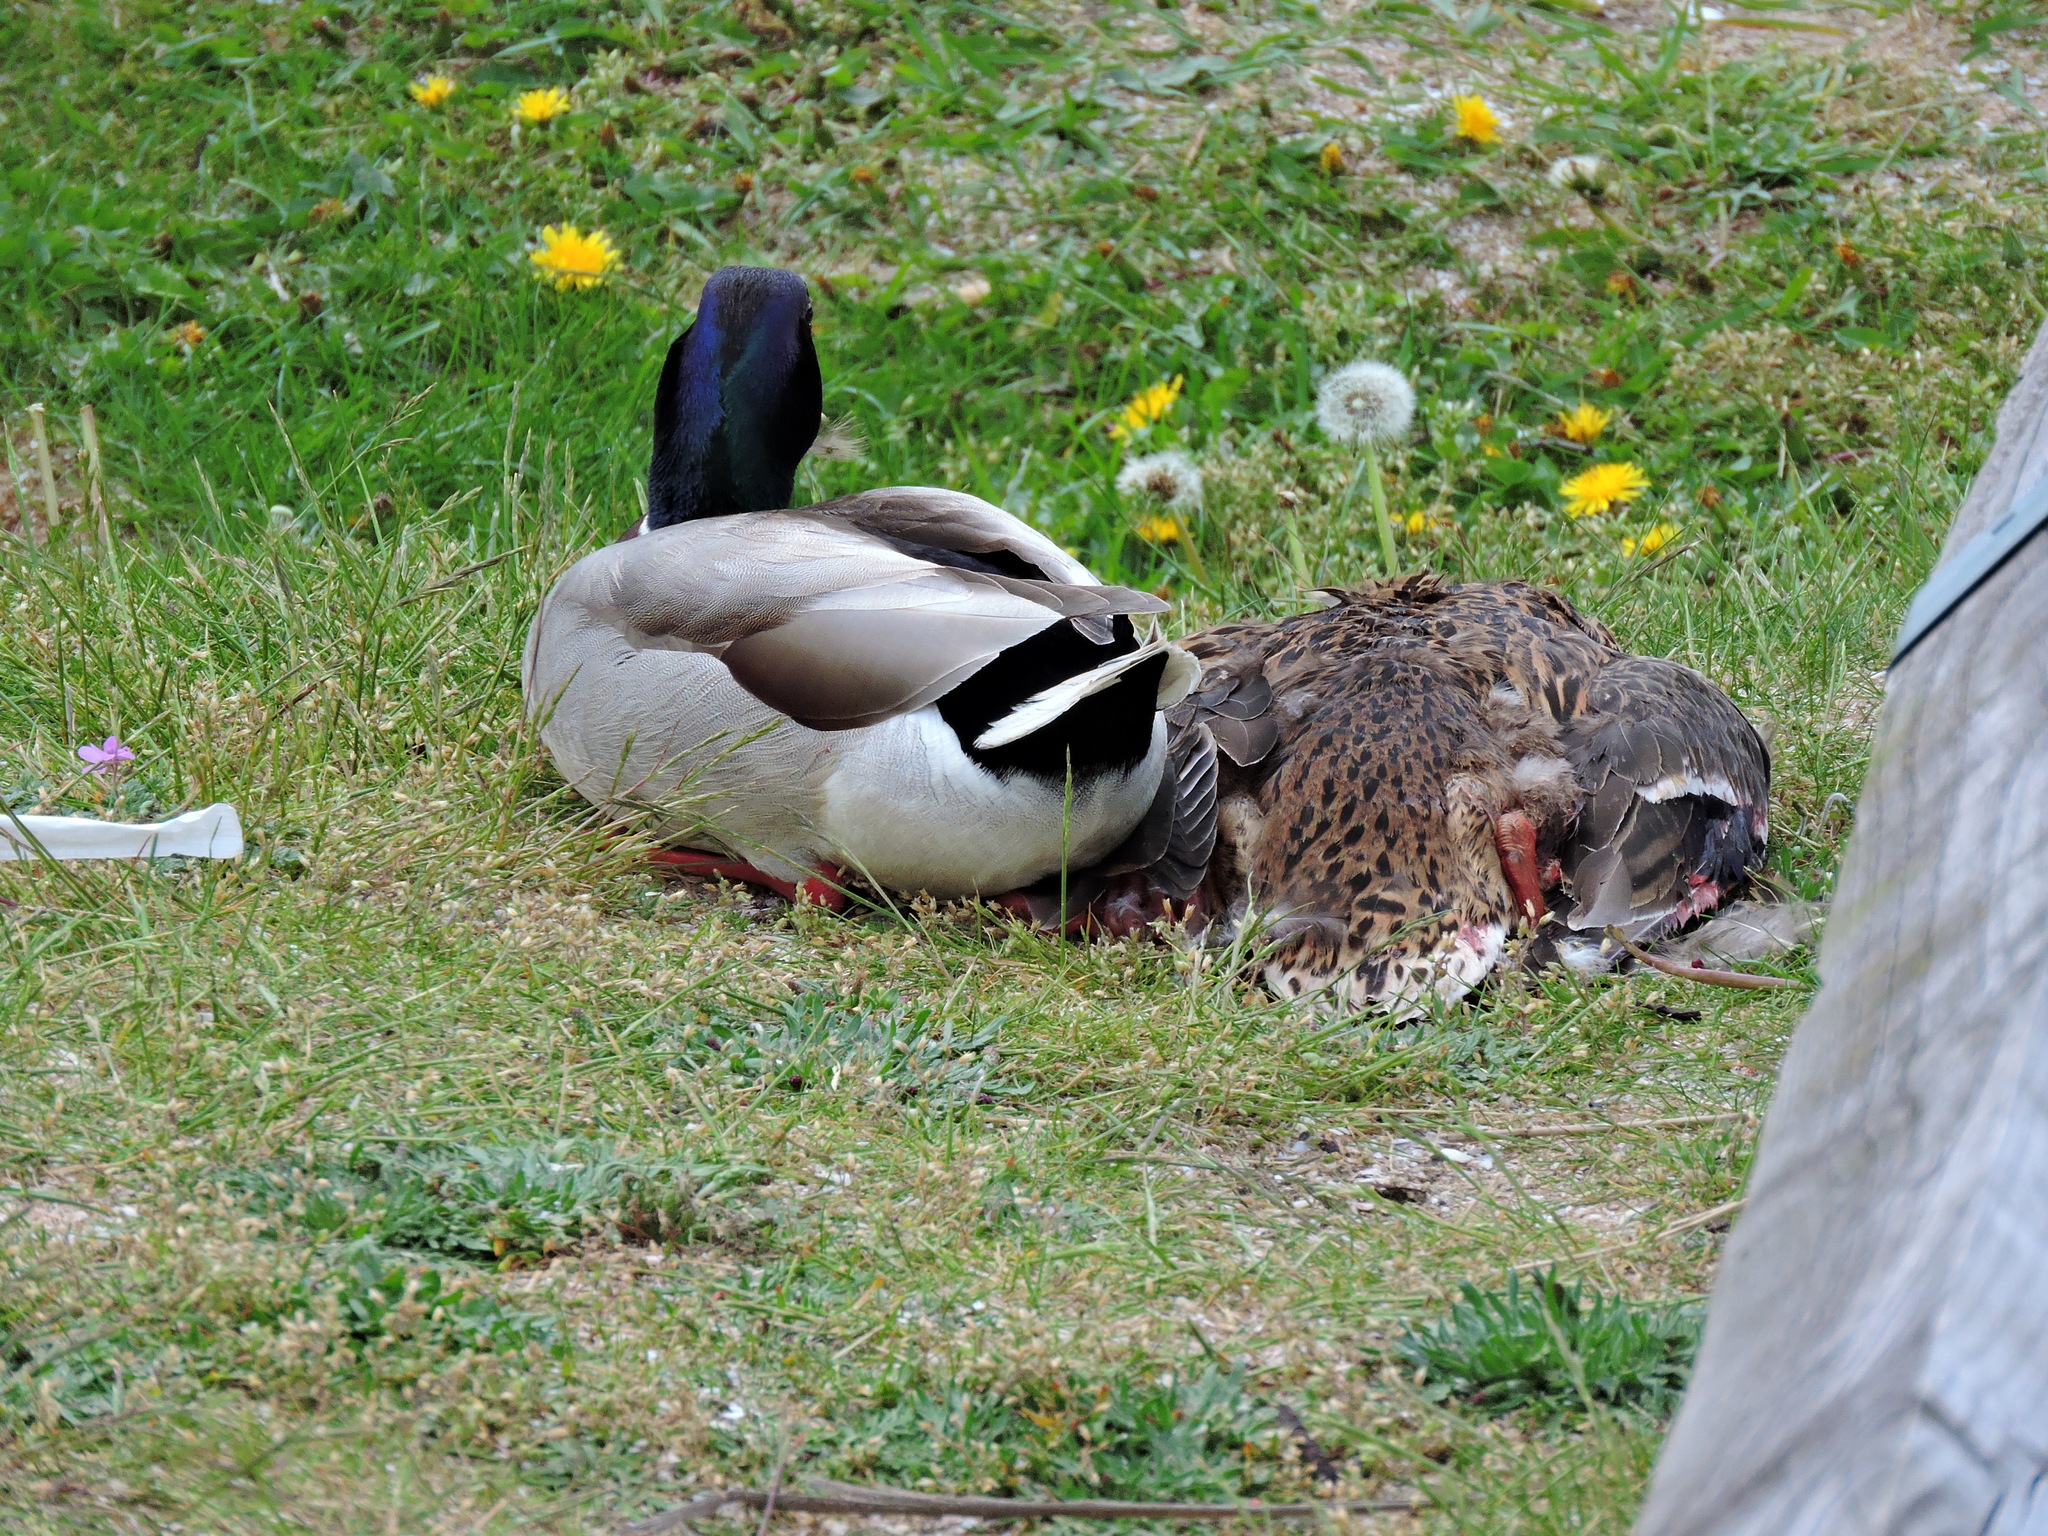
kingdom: Animalia
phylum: Chordata
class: Aves
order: Anseriformes
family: Anatidae
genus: Anas
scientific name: Anas platyrhynchos
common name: Mallard
